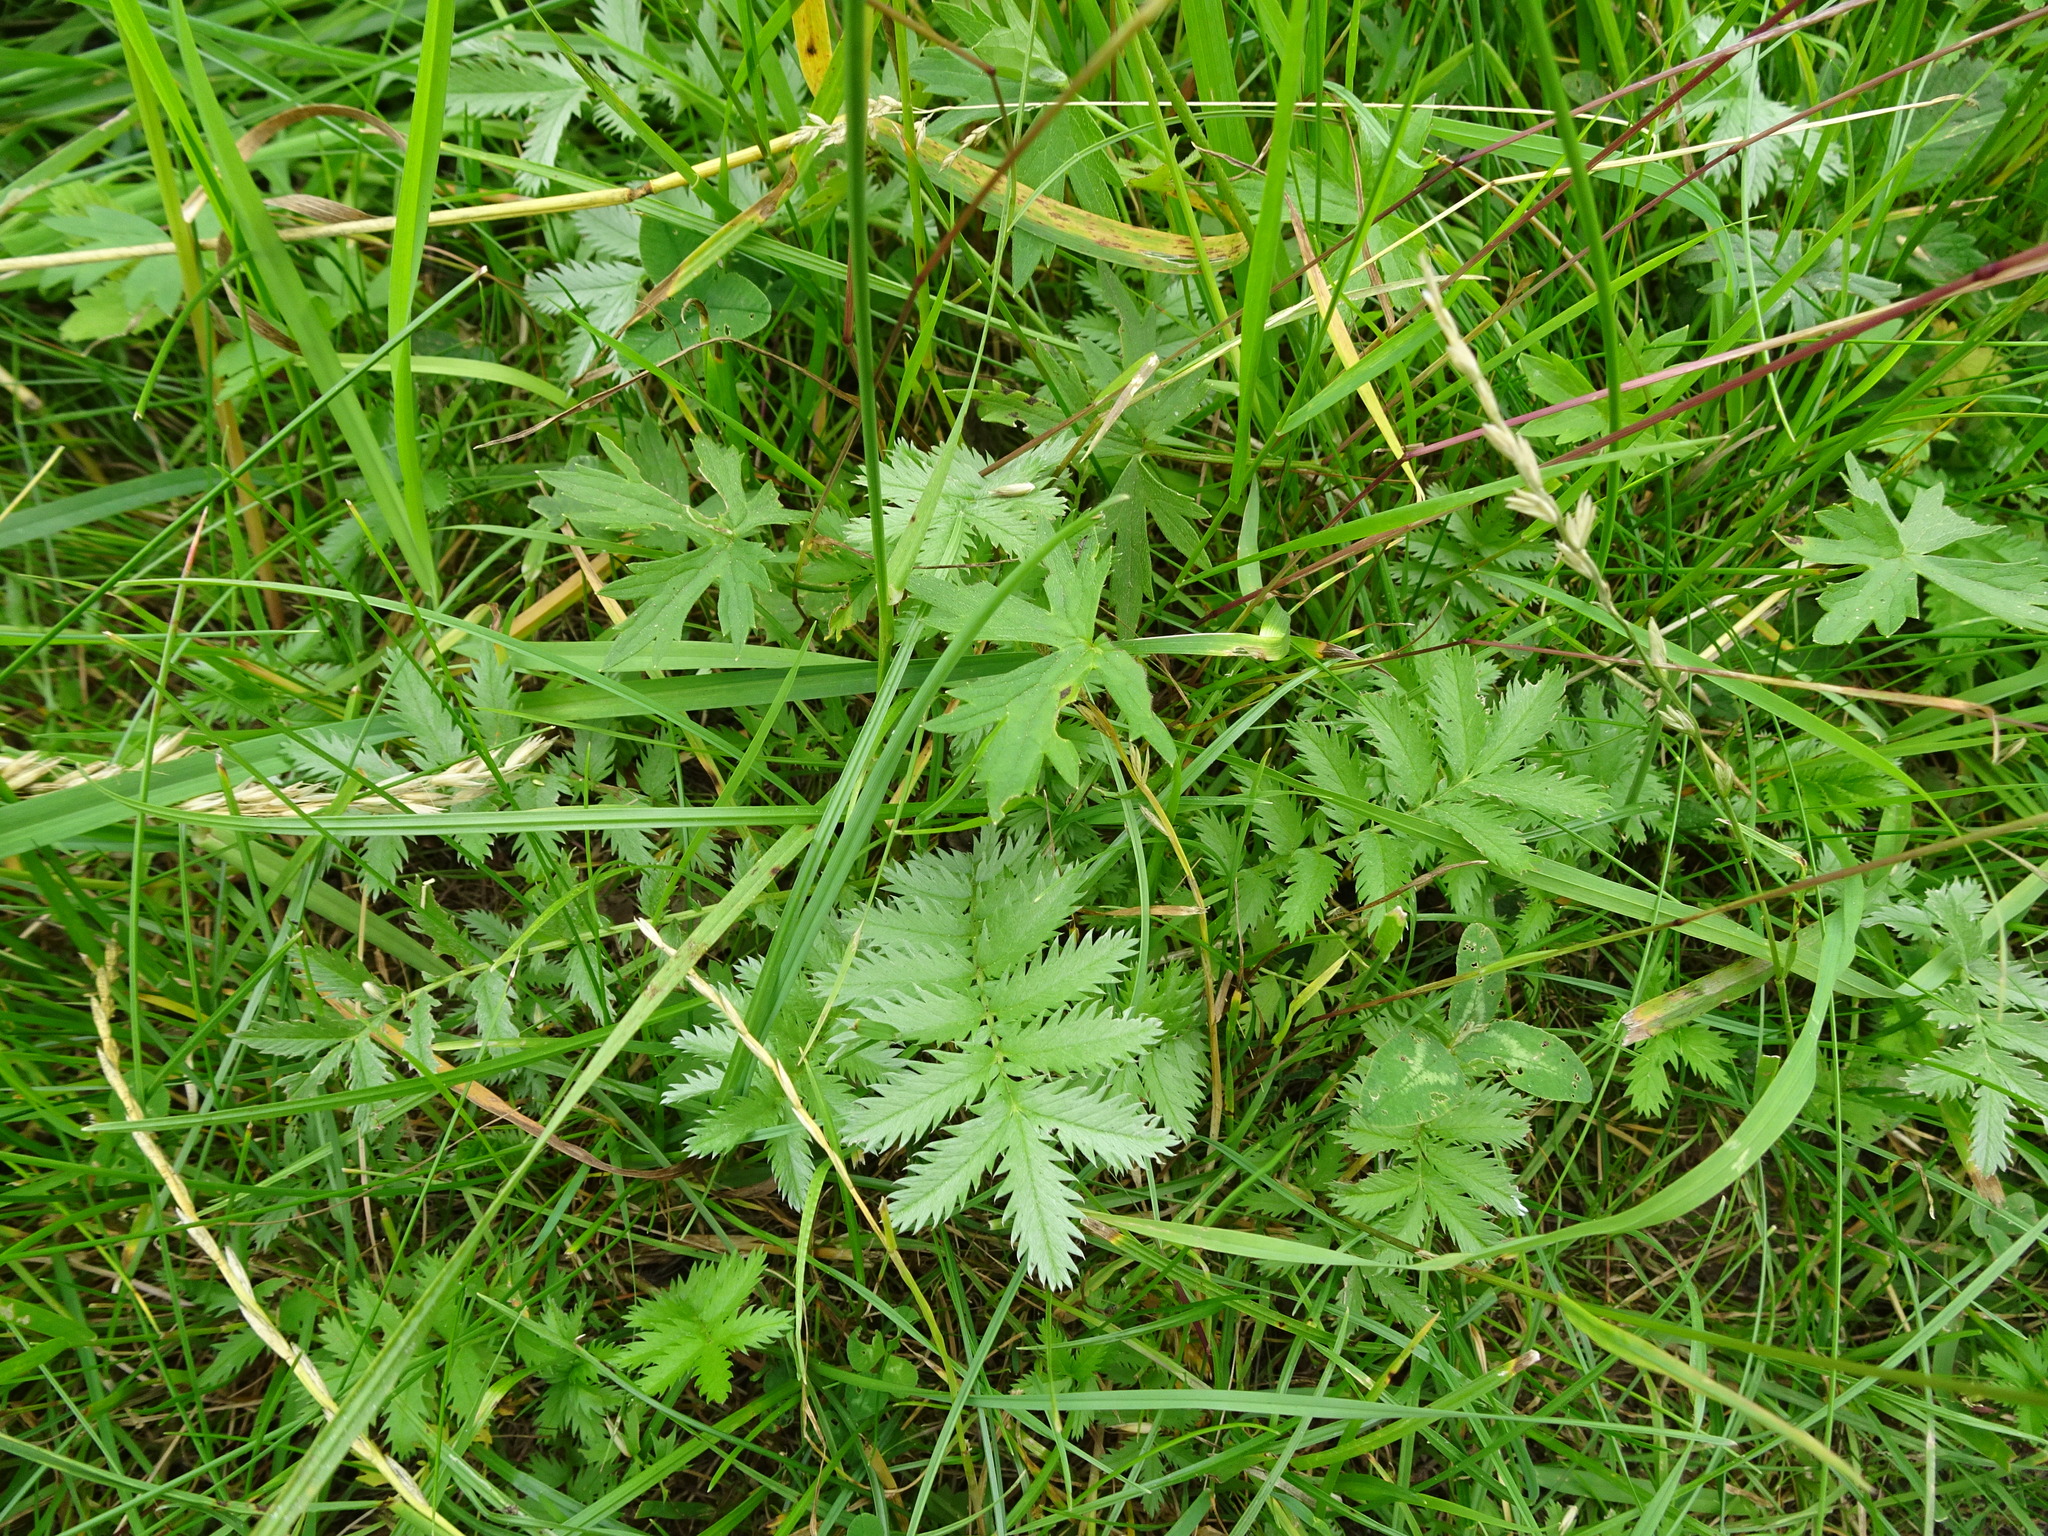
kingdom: Plantae
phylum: Tracheophyta
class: Magnoliopsida
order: Rosales
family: Rosaceae
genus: Argentina
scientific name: Argentina anserina
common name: Common silverweed
